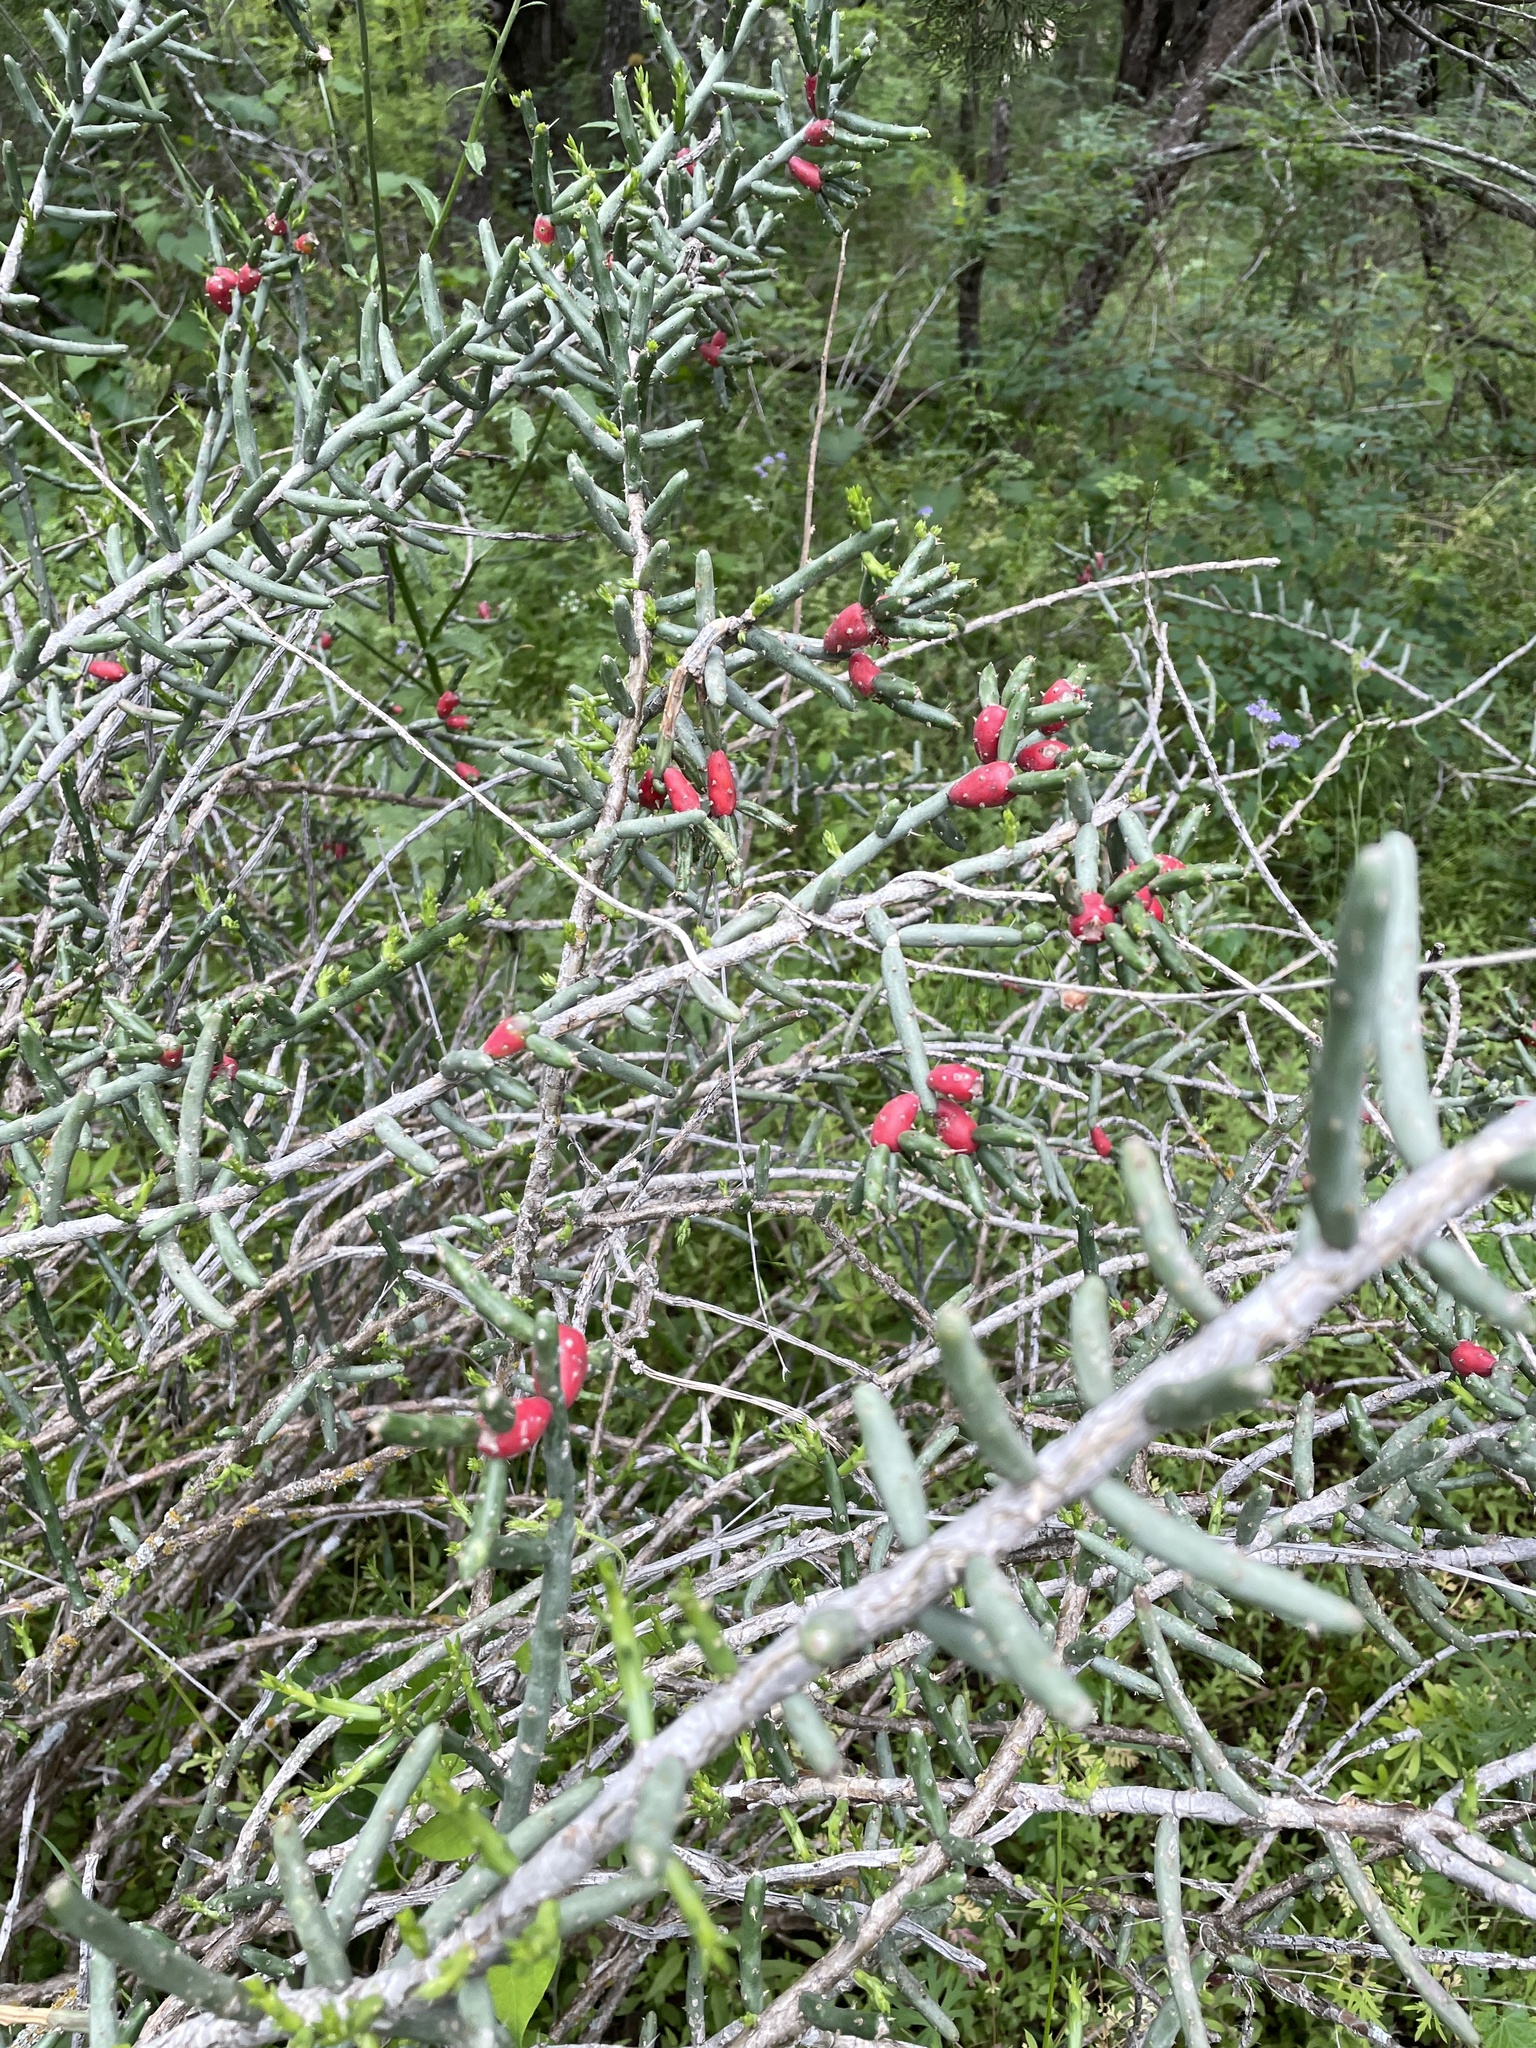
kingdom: Plantae
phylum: Tracheophyta
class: Magnoliopsida
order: Caryophyllales
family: Cactaceae
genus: Cylindropuntia
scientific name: Cylindropuntia leptocaulis
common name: Christmas cactus
